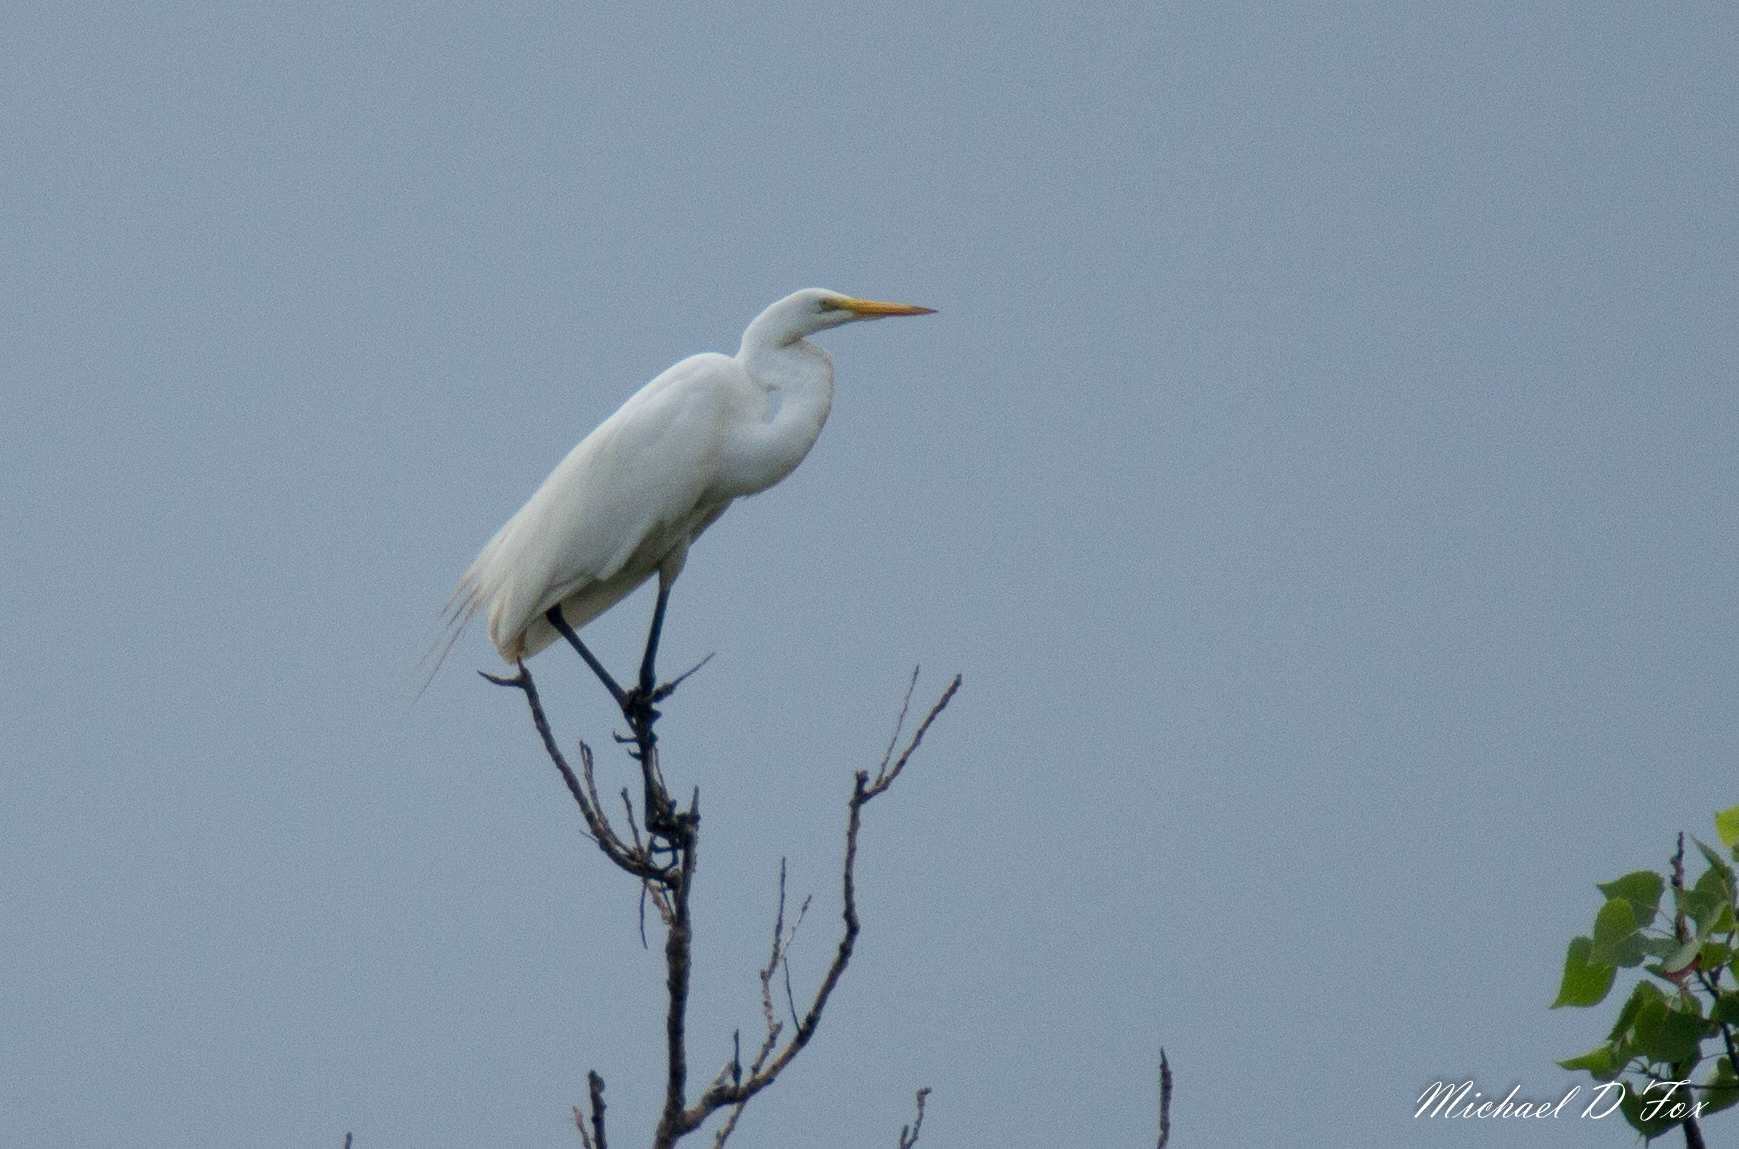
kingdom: Animalia
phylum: Chordata
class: Aves
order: Pelecaniformes
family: Ardeidae
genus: Ardea
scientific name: Ardea alba
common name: Great egret
